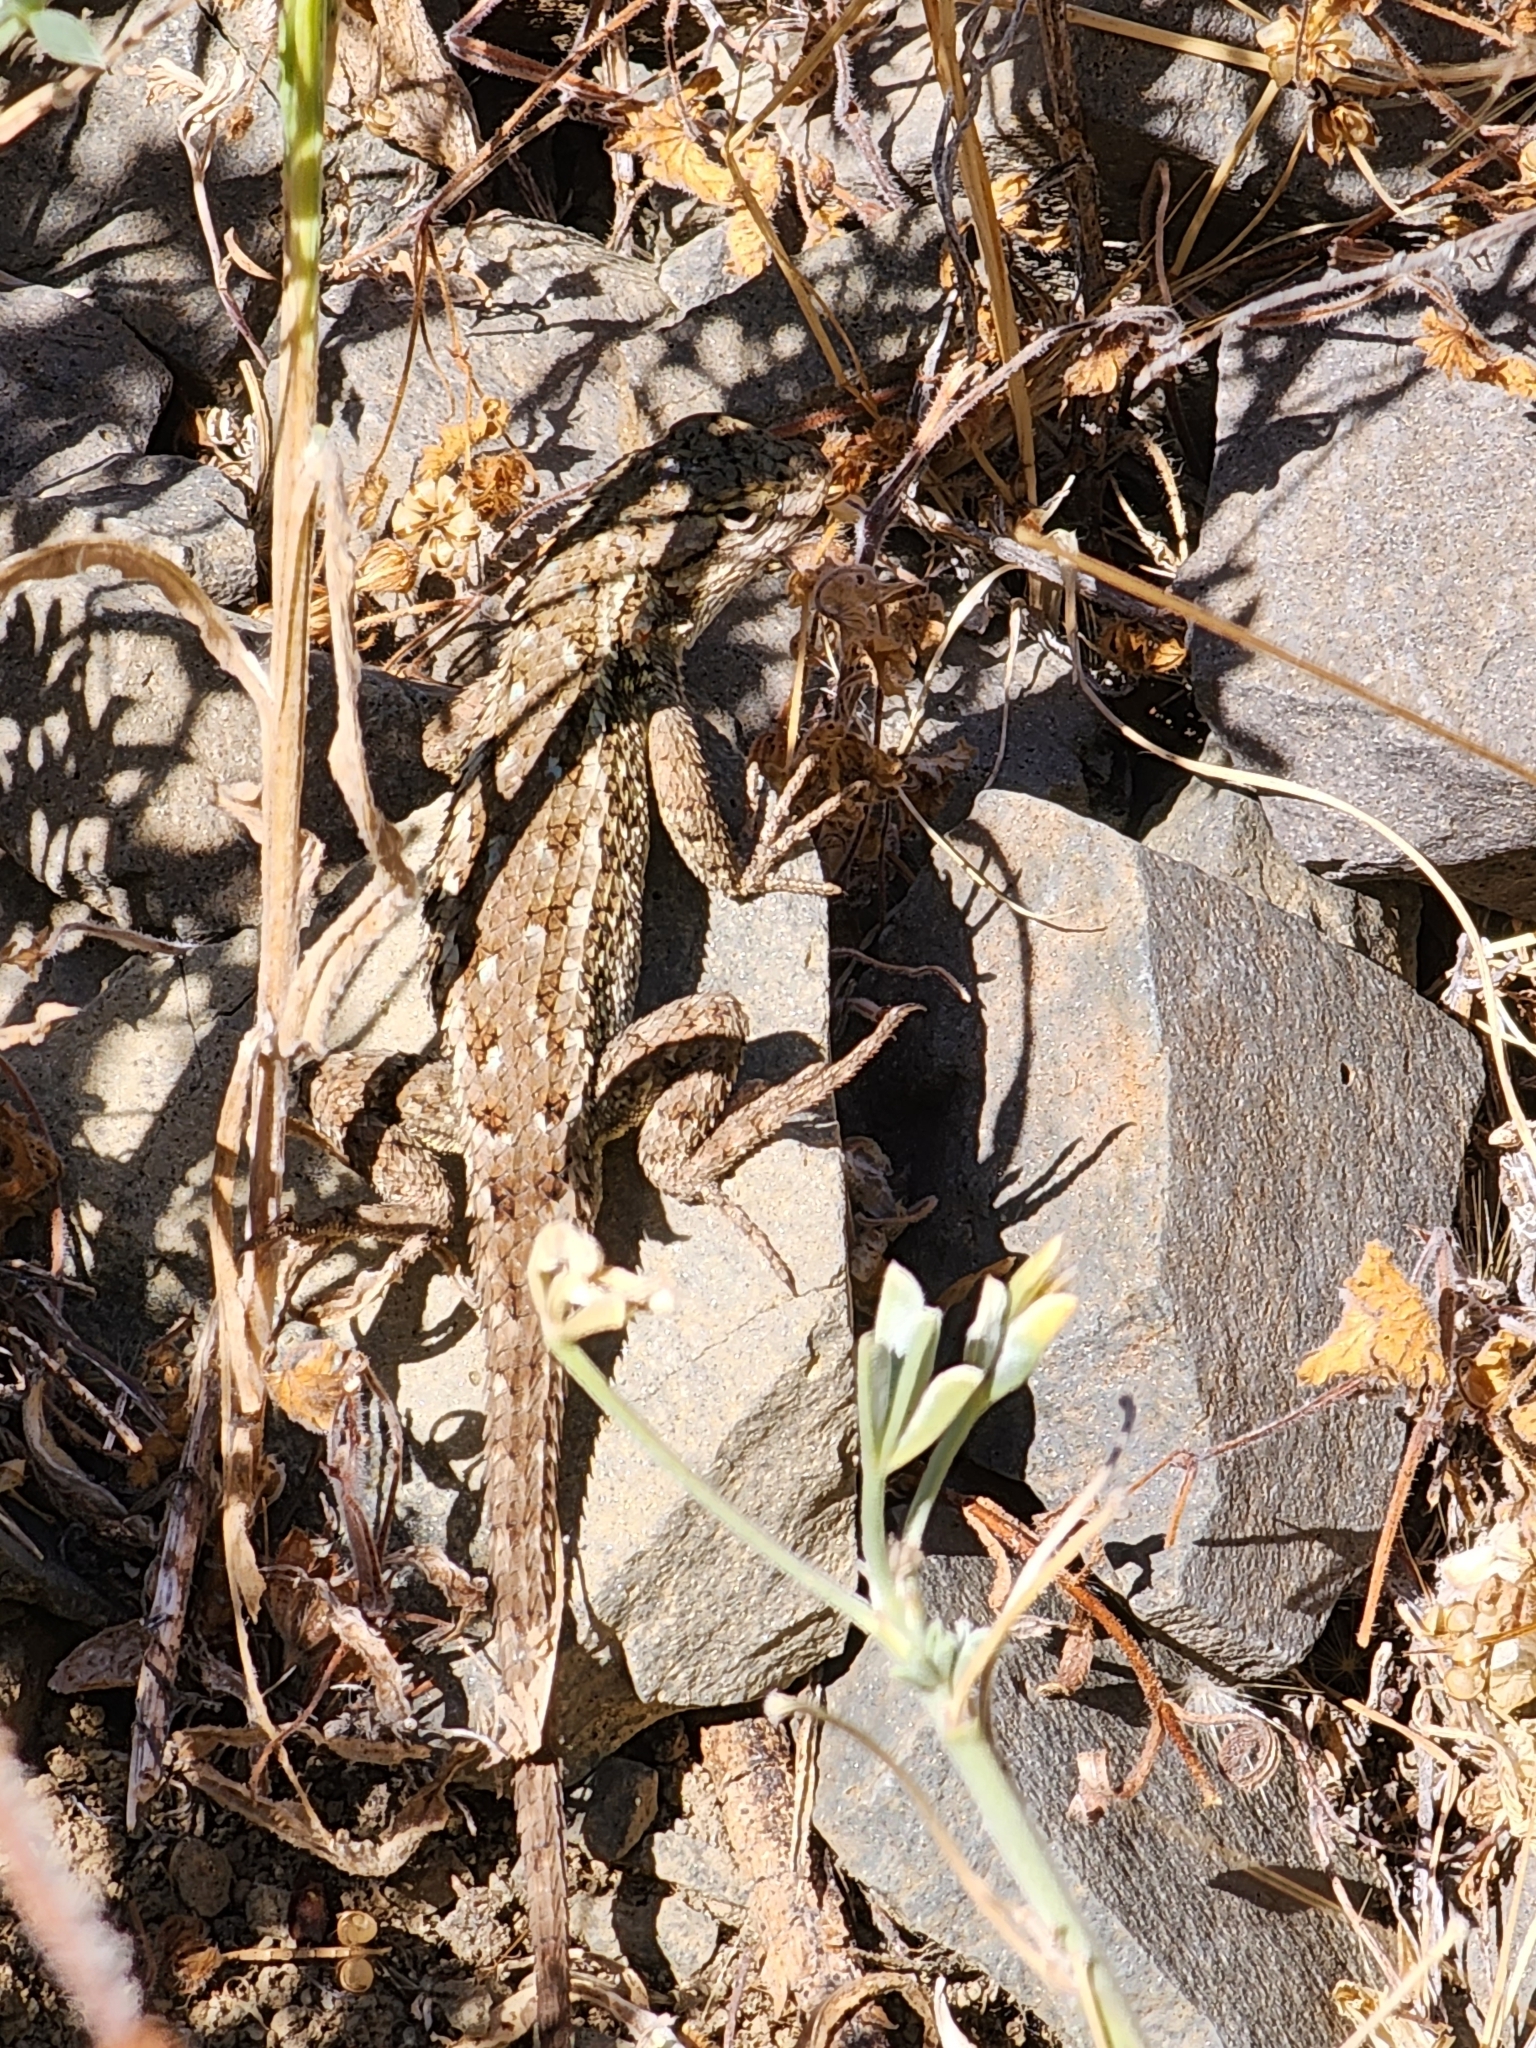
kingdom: Animalia
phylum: Chordata
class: Squamata
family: Phrynosomatidae
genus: Sceloporus
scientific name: Sceloporus occidentalis
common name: Western fence lizard
